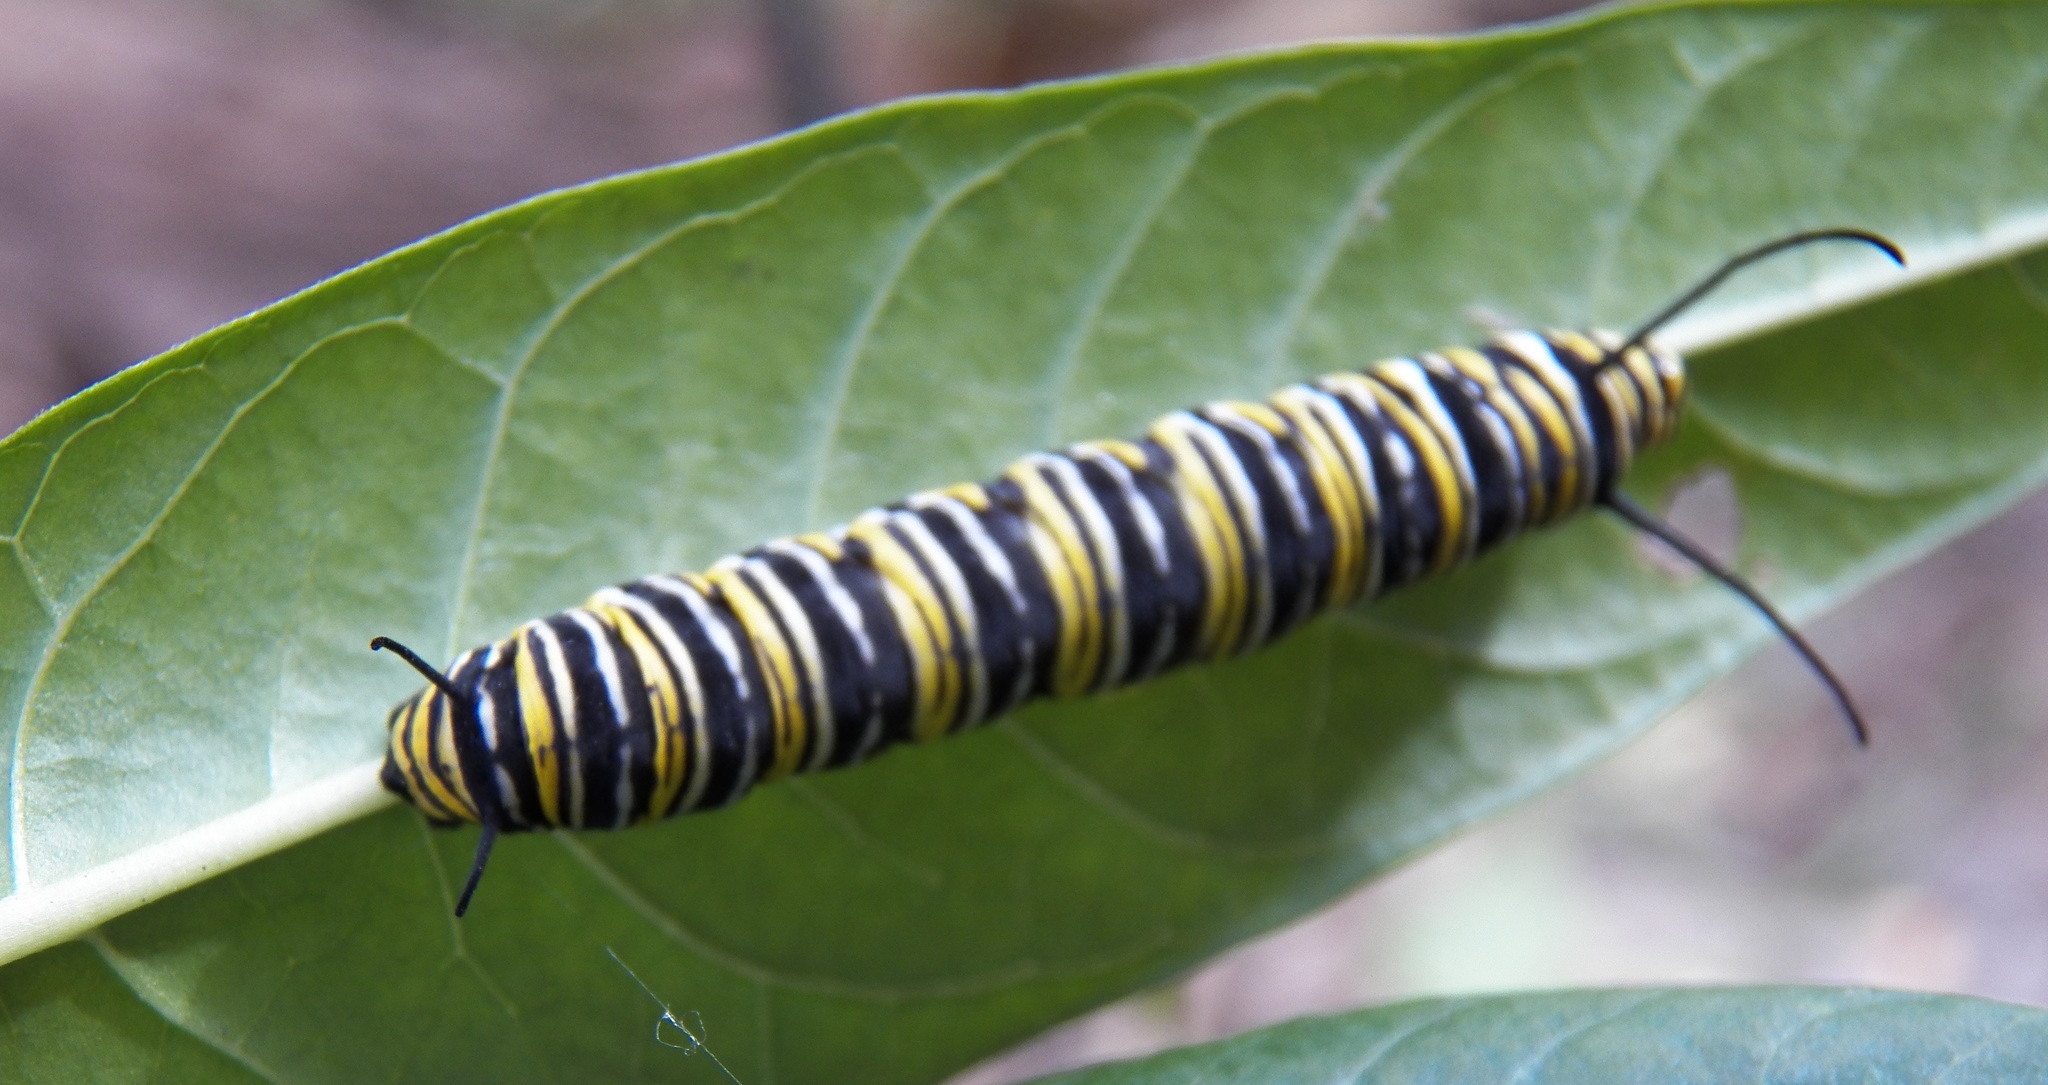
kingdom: Animalia
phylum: Arthropoda
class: Insecta
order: Lepidoptera
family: Nymphalidae
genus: Danaus
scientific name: Danaus plexippus
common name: Monarch
